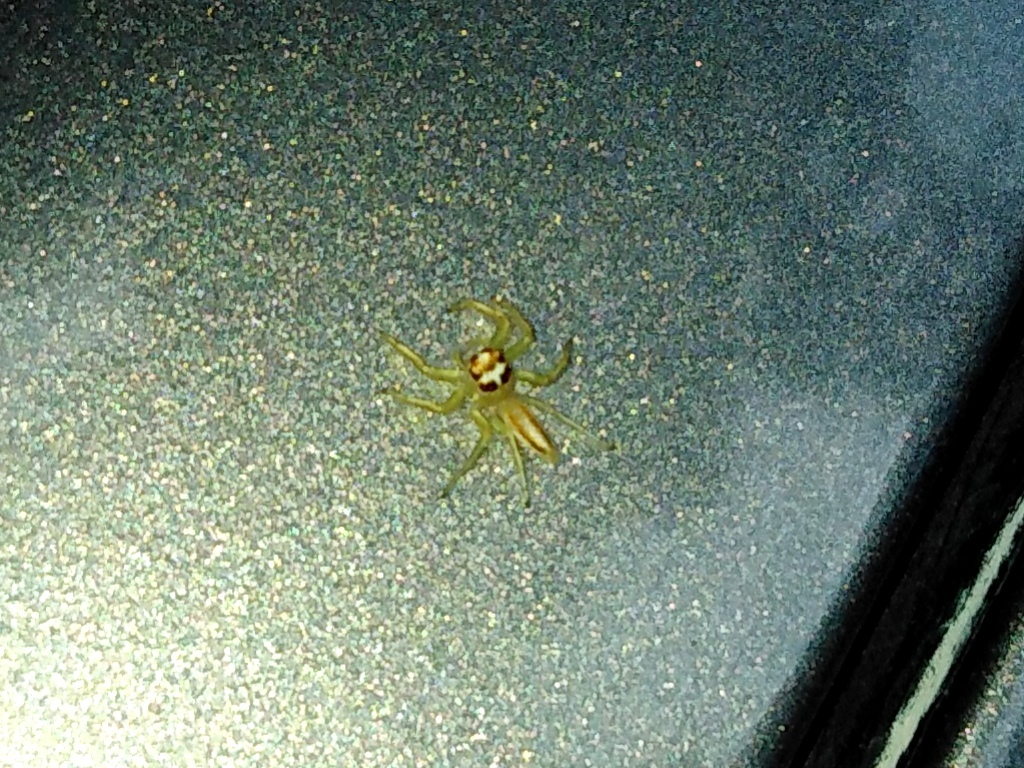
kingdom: Animalia
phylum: Arthropoda
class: Arachnida
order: Araneae
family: Salticidae
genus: Telamonia
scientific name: Telamonia dimidiata
